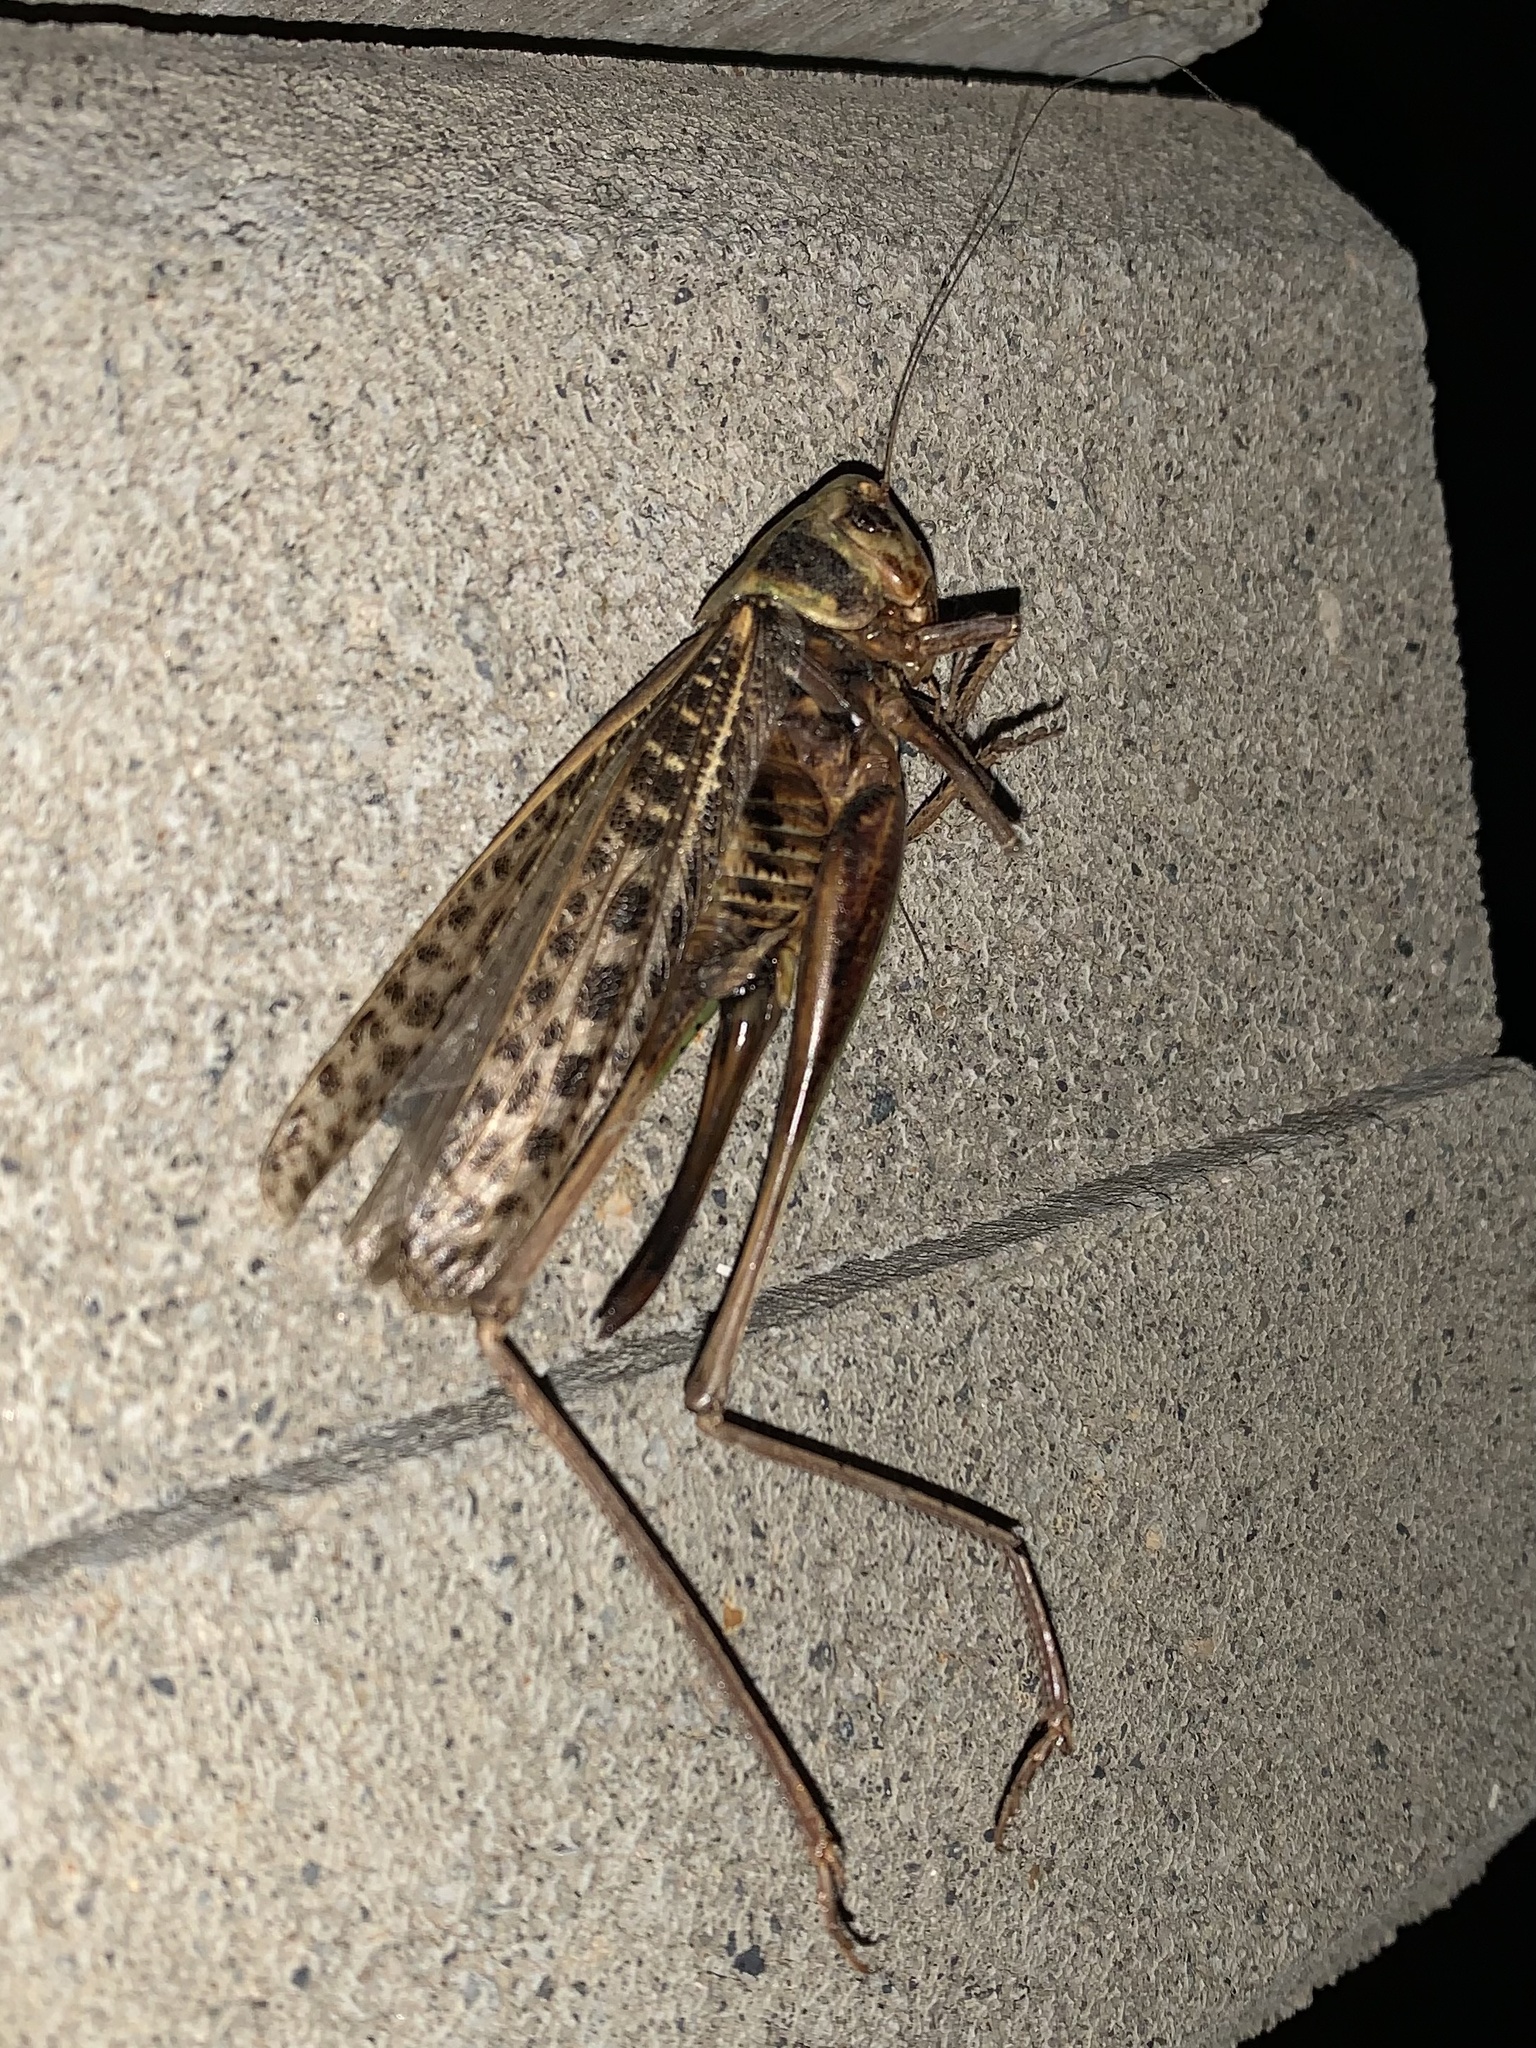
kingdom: Animalia
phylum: Arthropoda
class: Insecta
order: Orthoptera
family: Tettigoniidae
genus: Decticus
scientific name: Decticus verrucivorus
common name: Wart-biter
